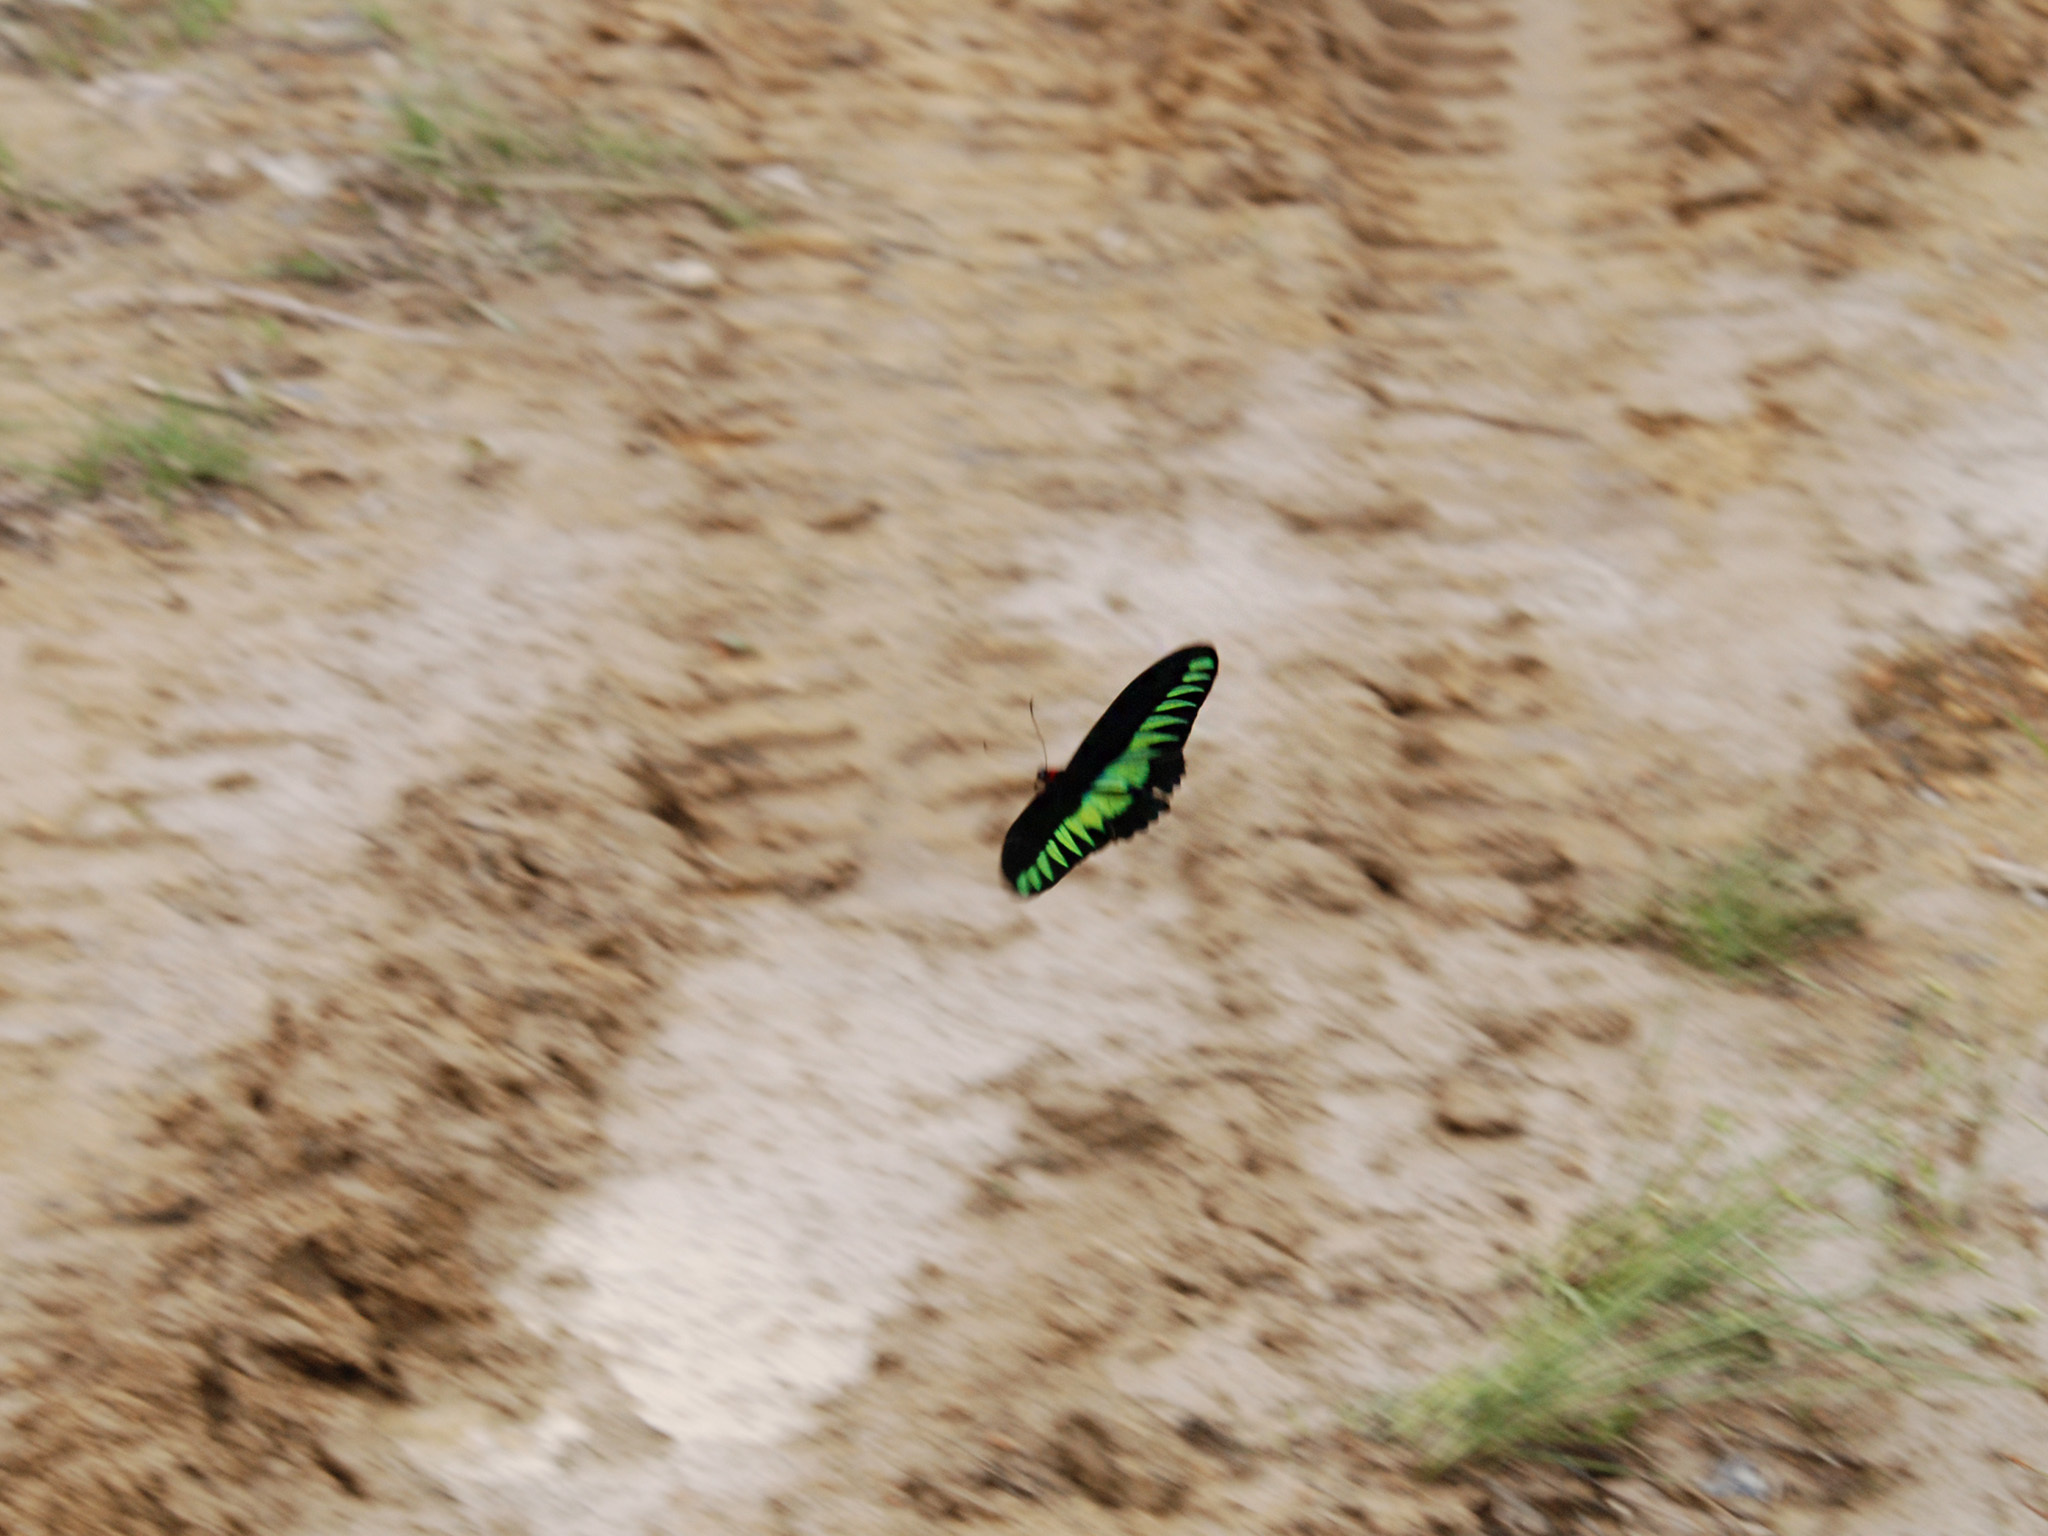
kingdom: Animalia
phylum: Arthropoda
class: Insecta
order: Lepidoptera
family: Papilionidae
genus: Trogonoptera
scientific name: Trogonoptera brookiana
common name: Raja brooke's birdwing
